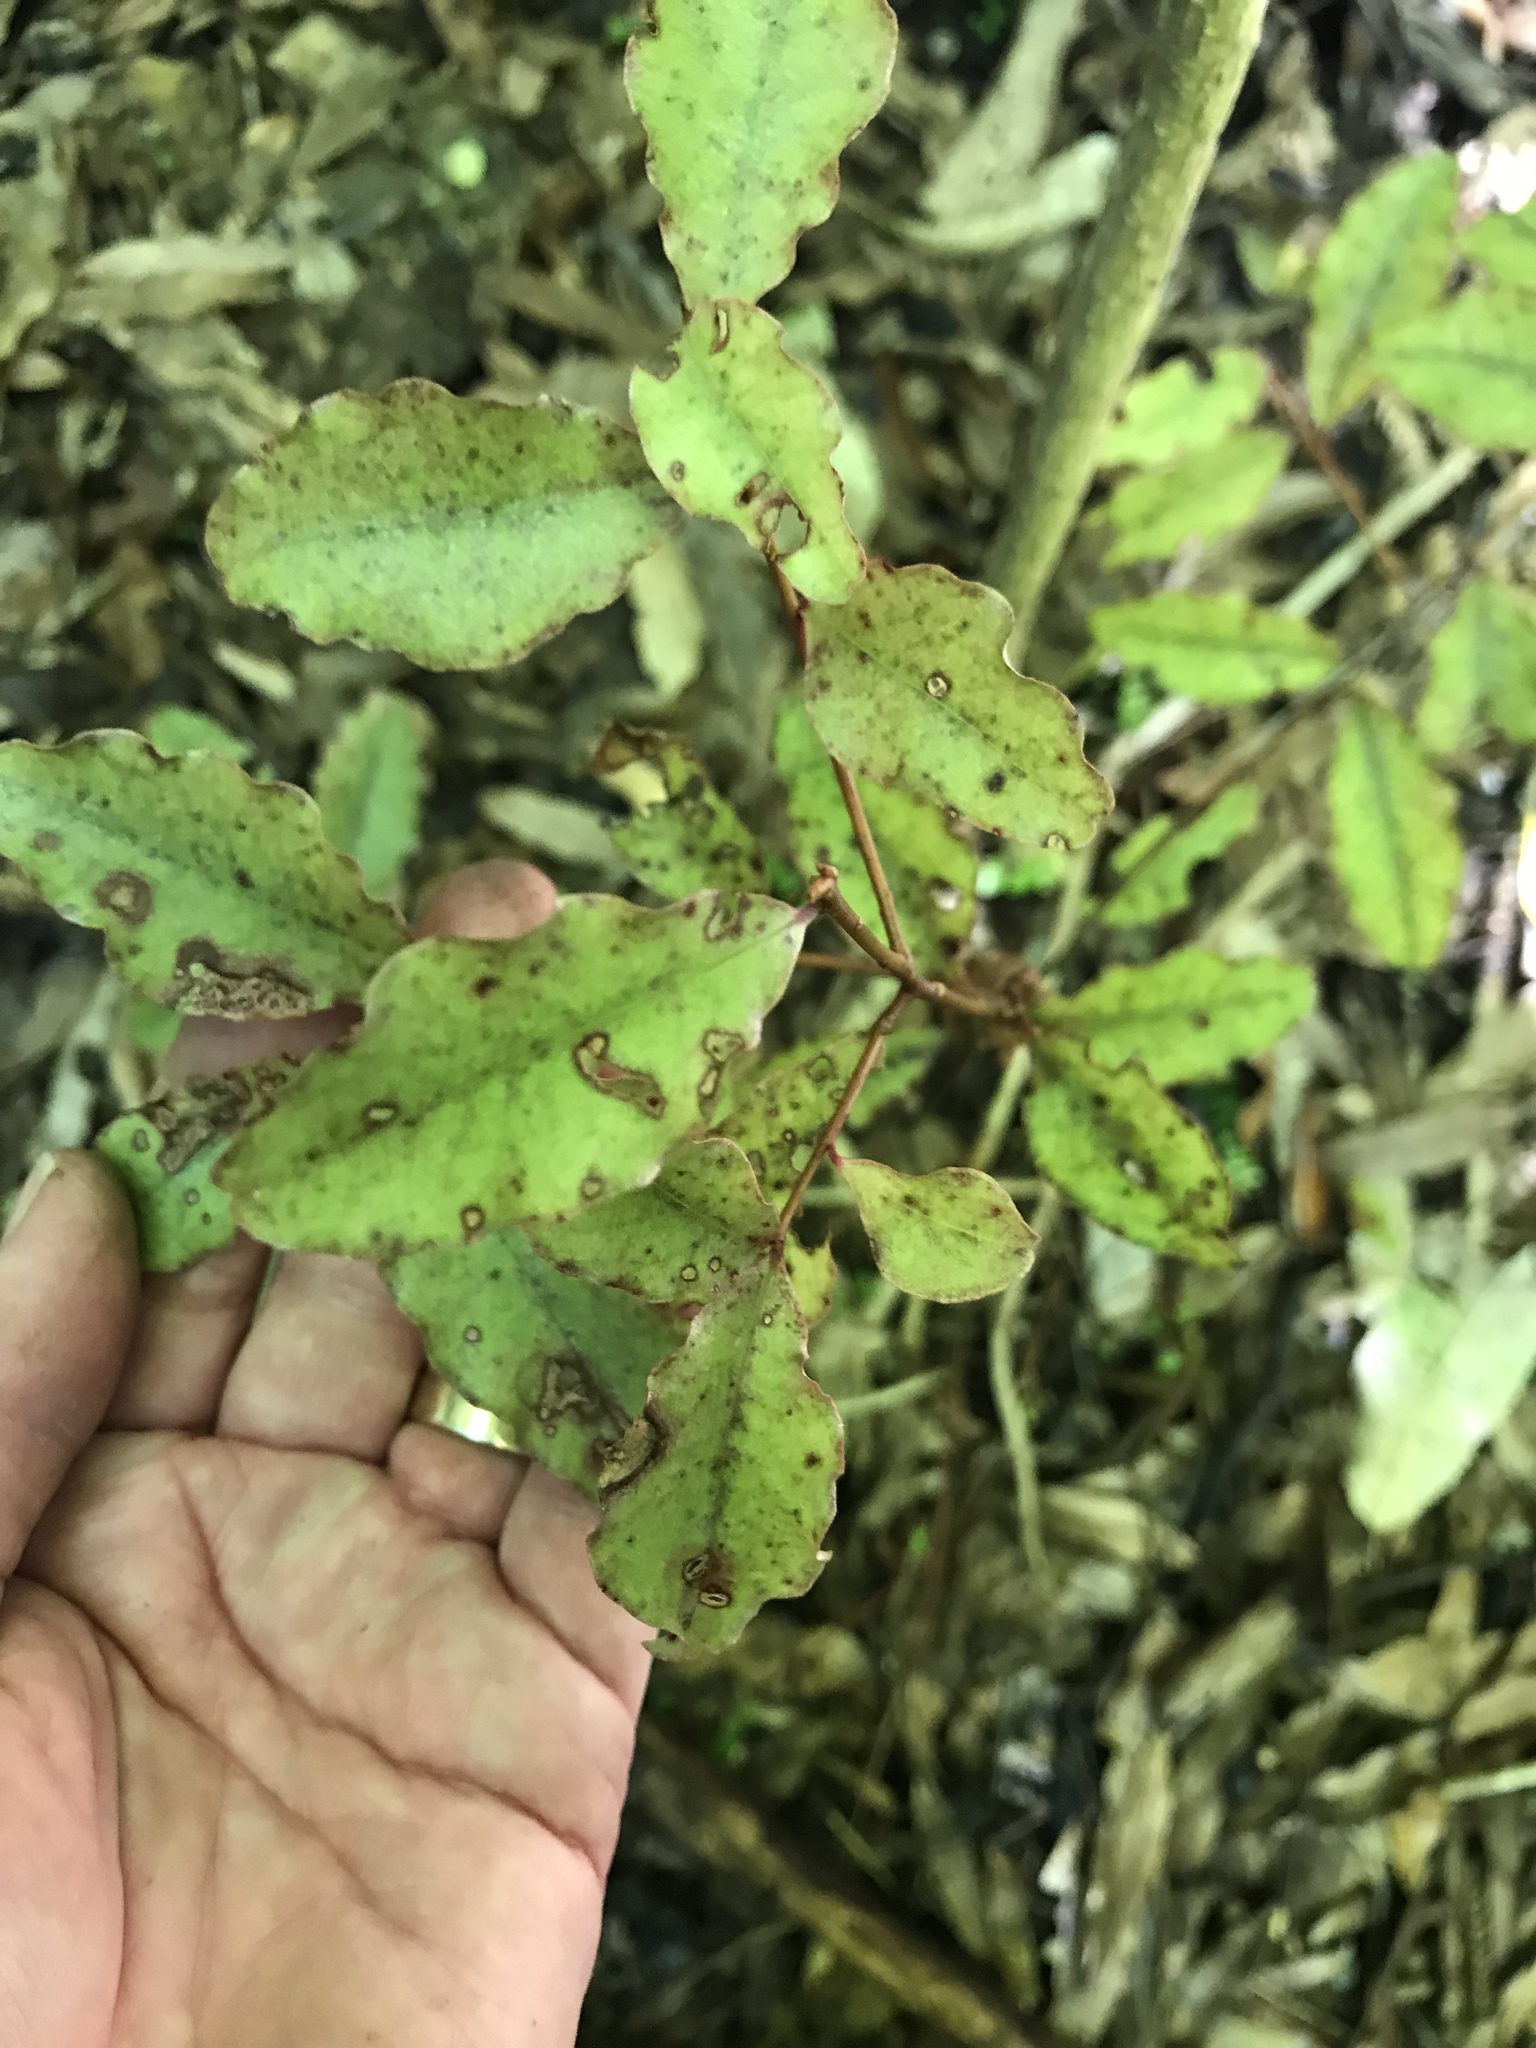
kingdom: Plantae
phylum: Tracheophyta
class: Magnoliopsida
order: Ericales
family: Primulaceae
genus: Myrsine
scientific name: Myrsine australis
